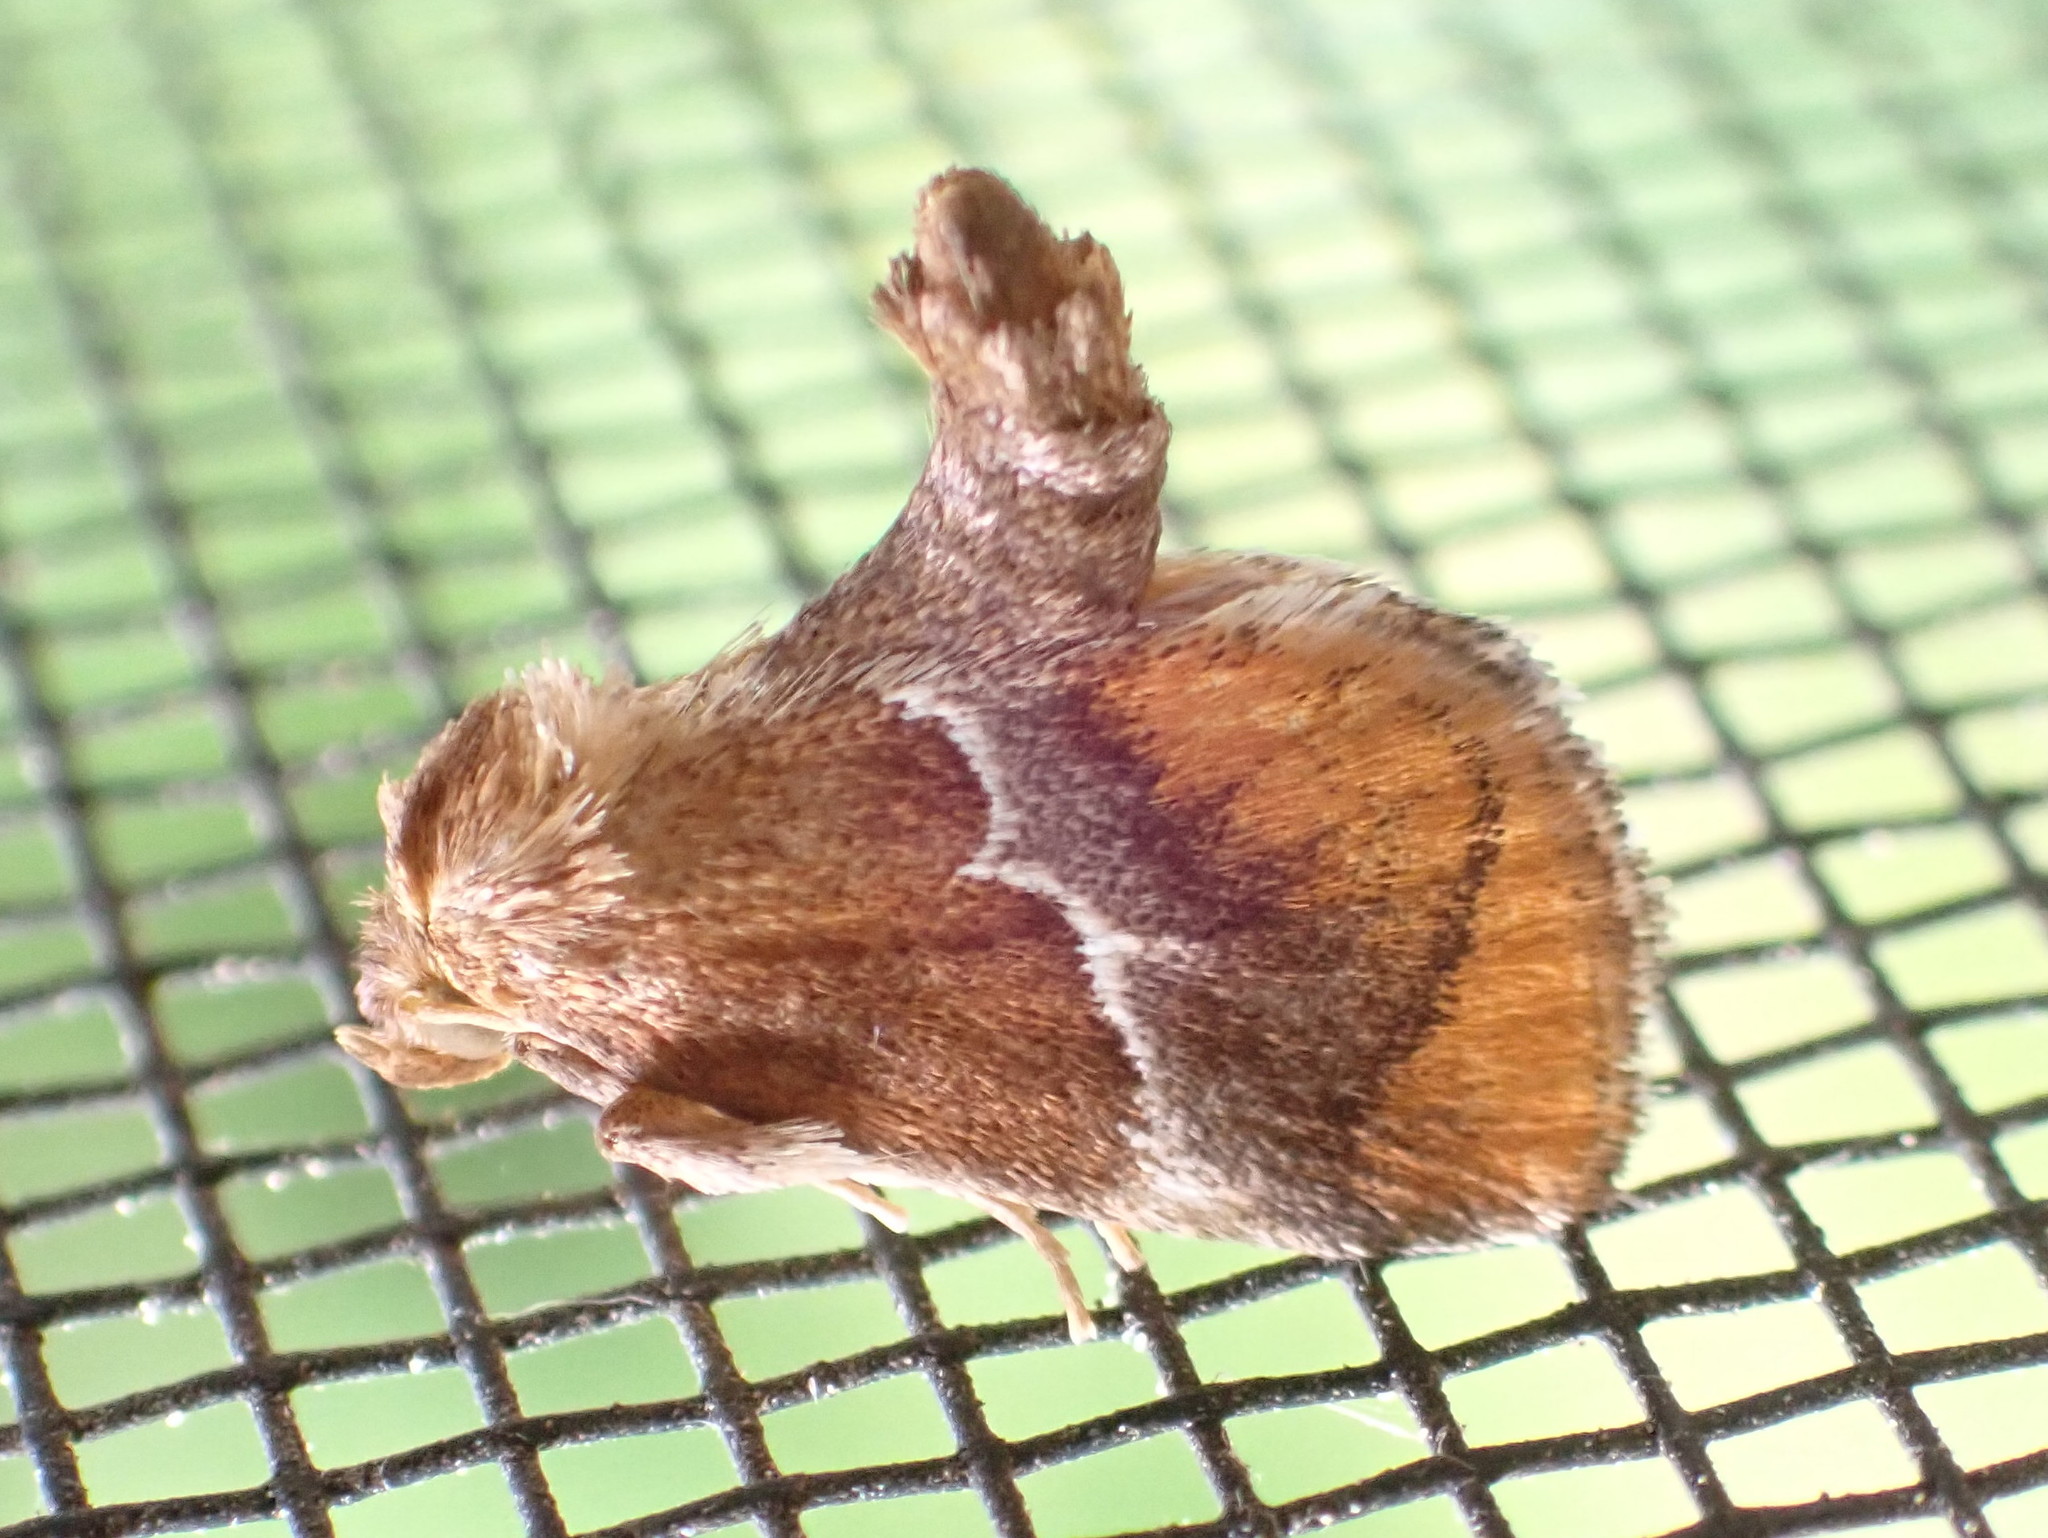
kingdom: Animalia
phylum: Arthropoda
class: Insecta
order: Lepidoptera
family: Limacodidae
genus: Lithacodes
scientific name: Lithacodes fasciola
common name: Yellow-shouldered slug moth
